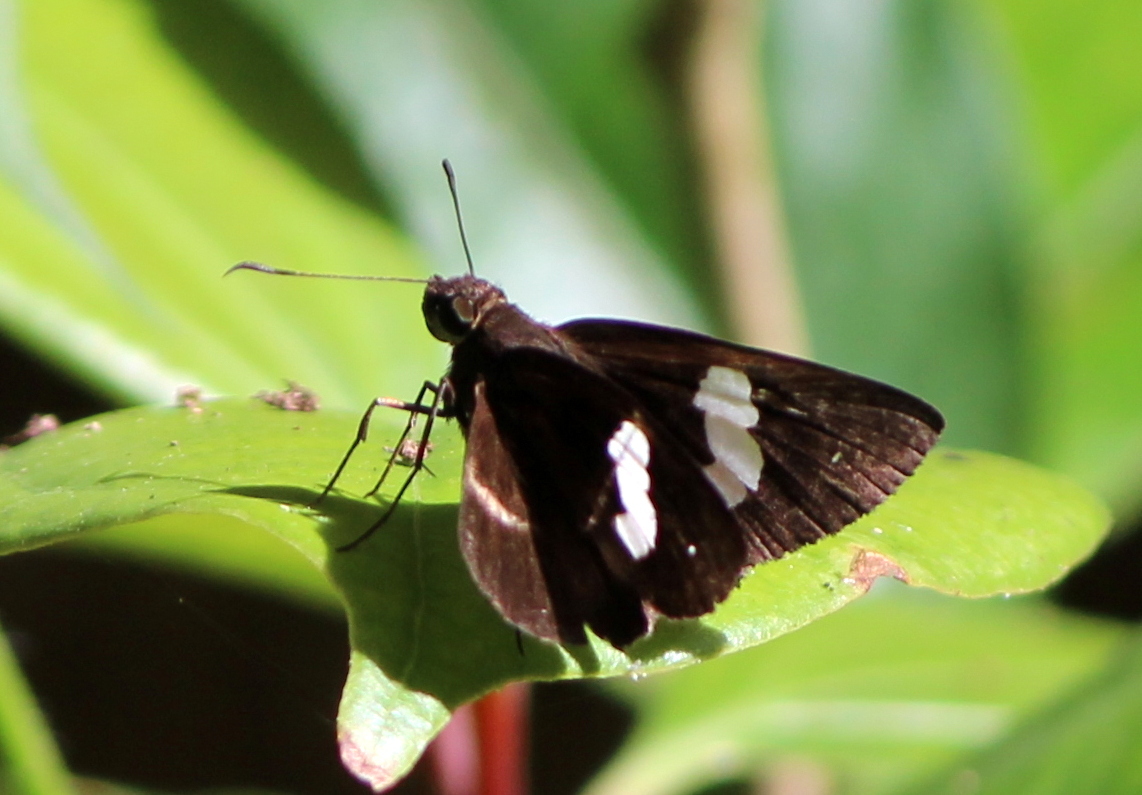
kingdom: Animalia
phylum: Arthropoda
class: Insecta
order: Lepidoptera
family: Hesperiidae
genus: Notocrypta
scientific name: Notocrypta paralysos
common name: Common banded demon
